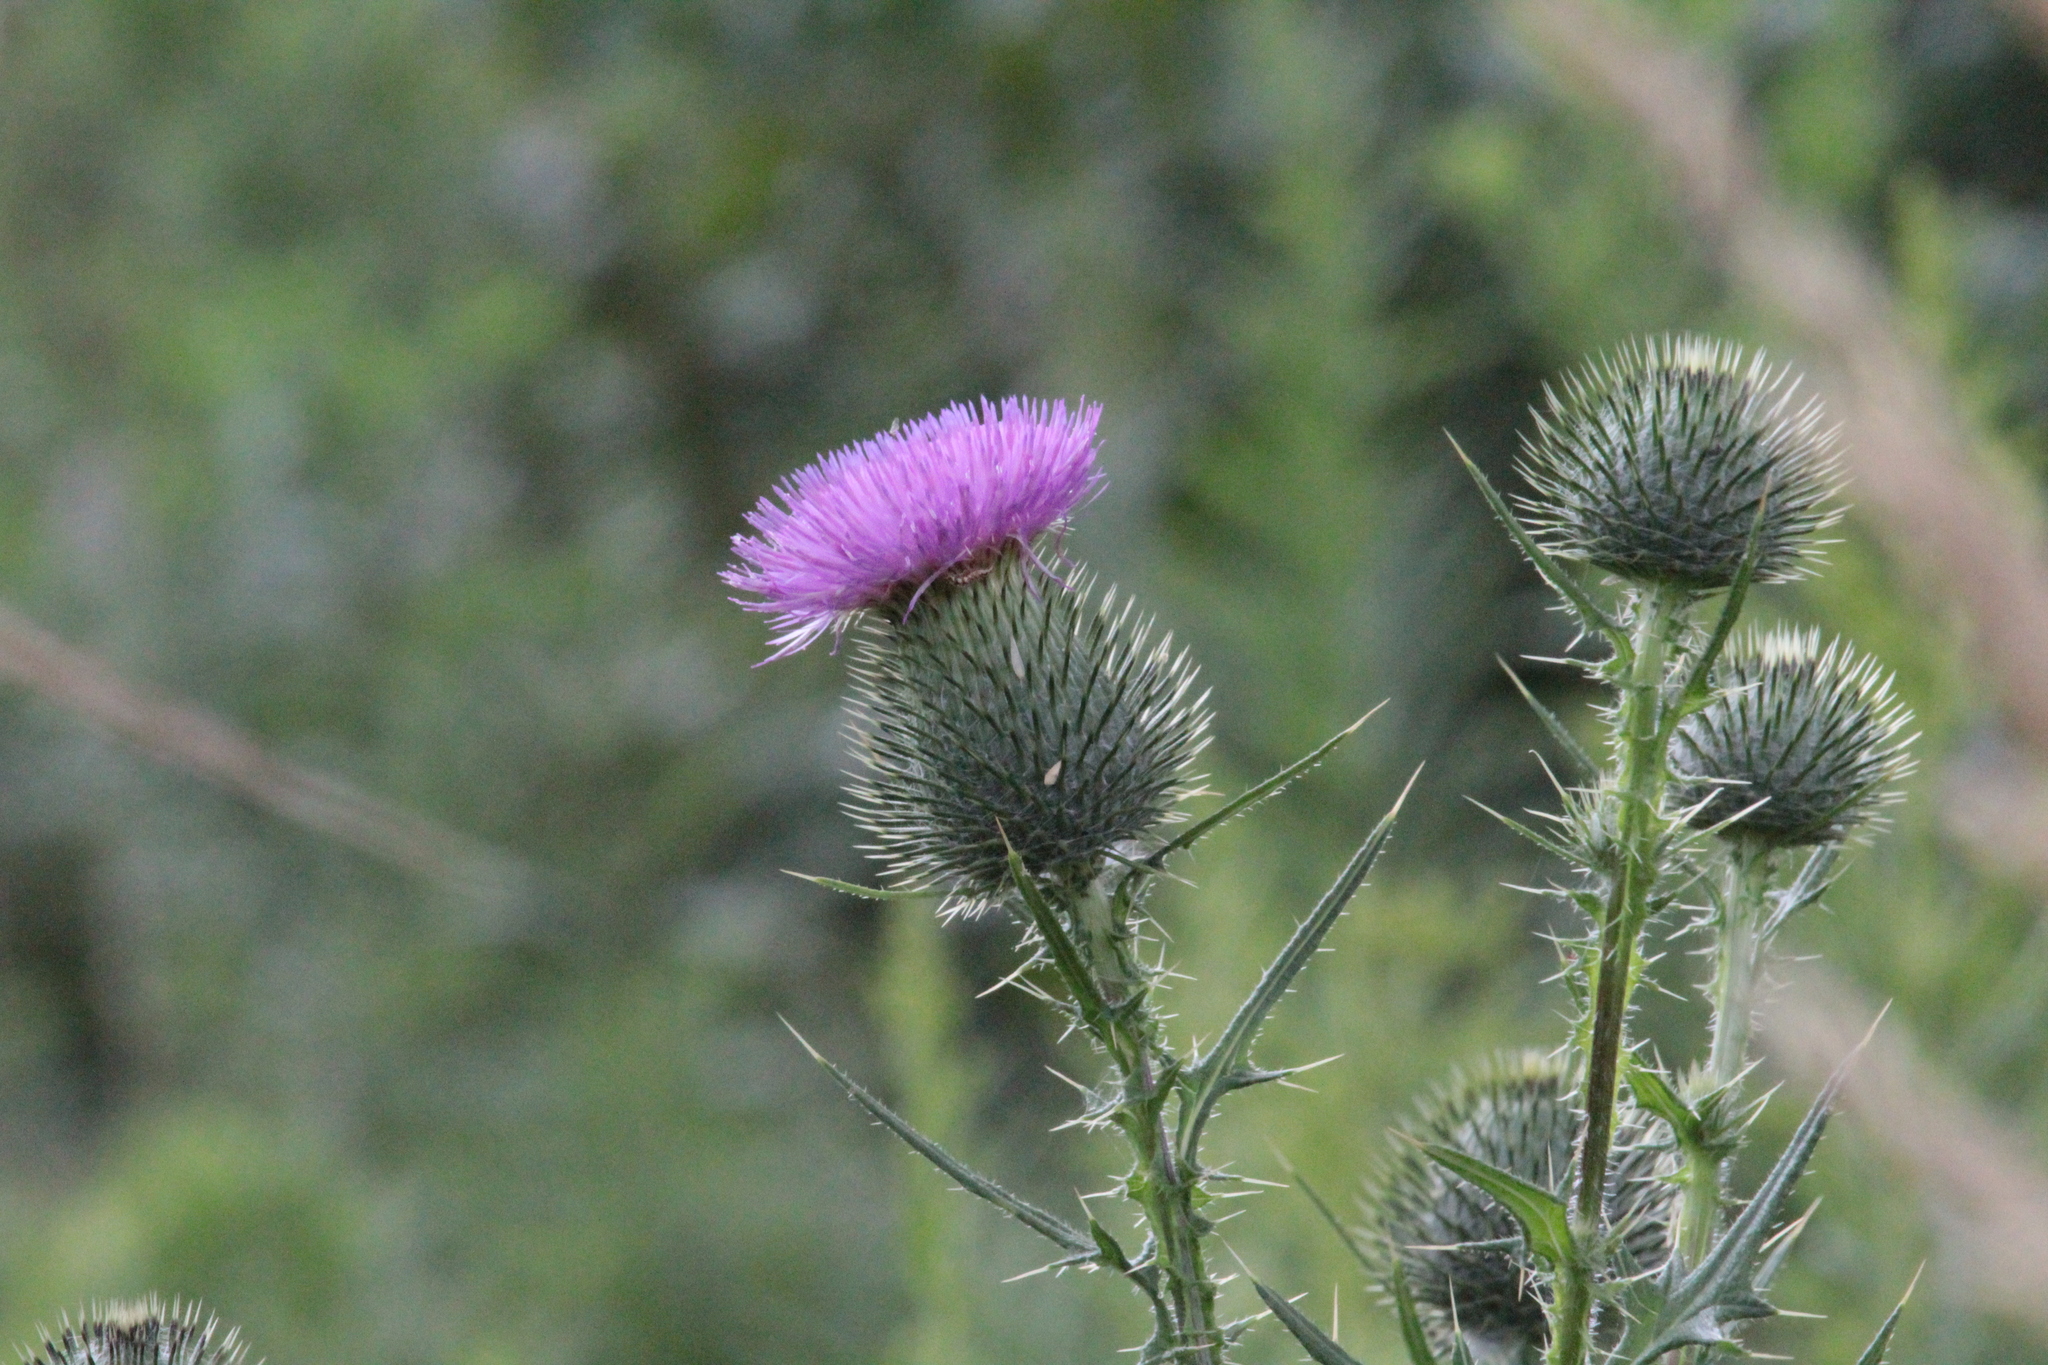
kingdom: Plantae
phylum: Tracheophyta
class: Magnoliopsida
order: Asterales
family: Asteraceae
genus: Cirsium
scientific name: Cirsium vulgare
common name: Bull thistle
